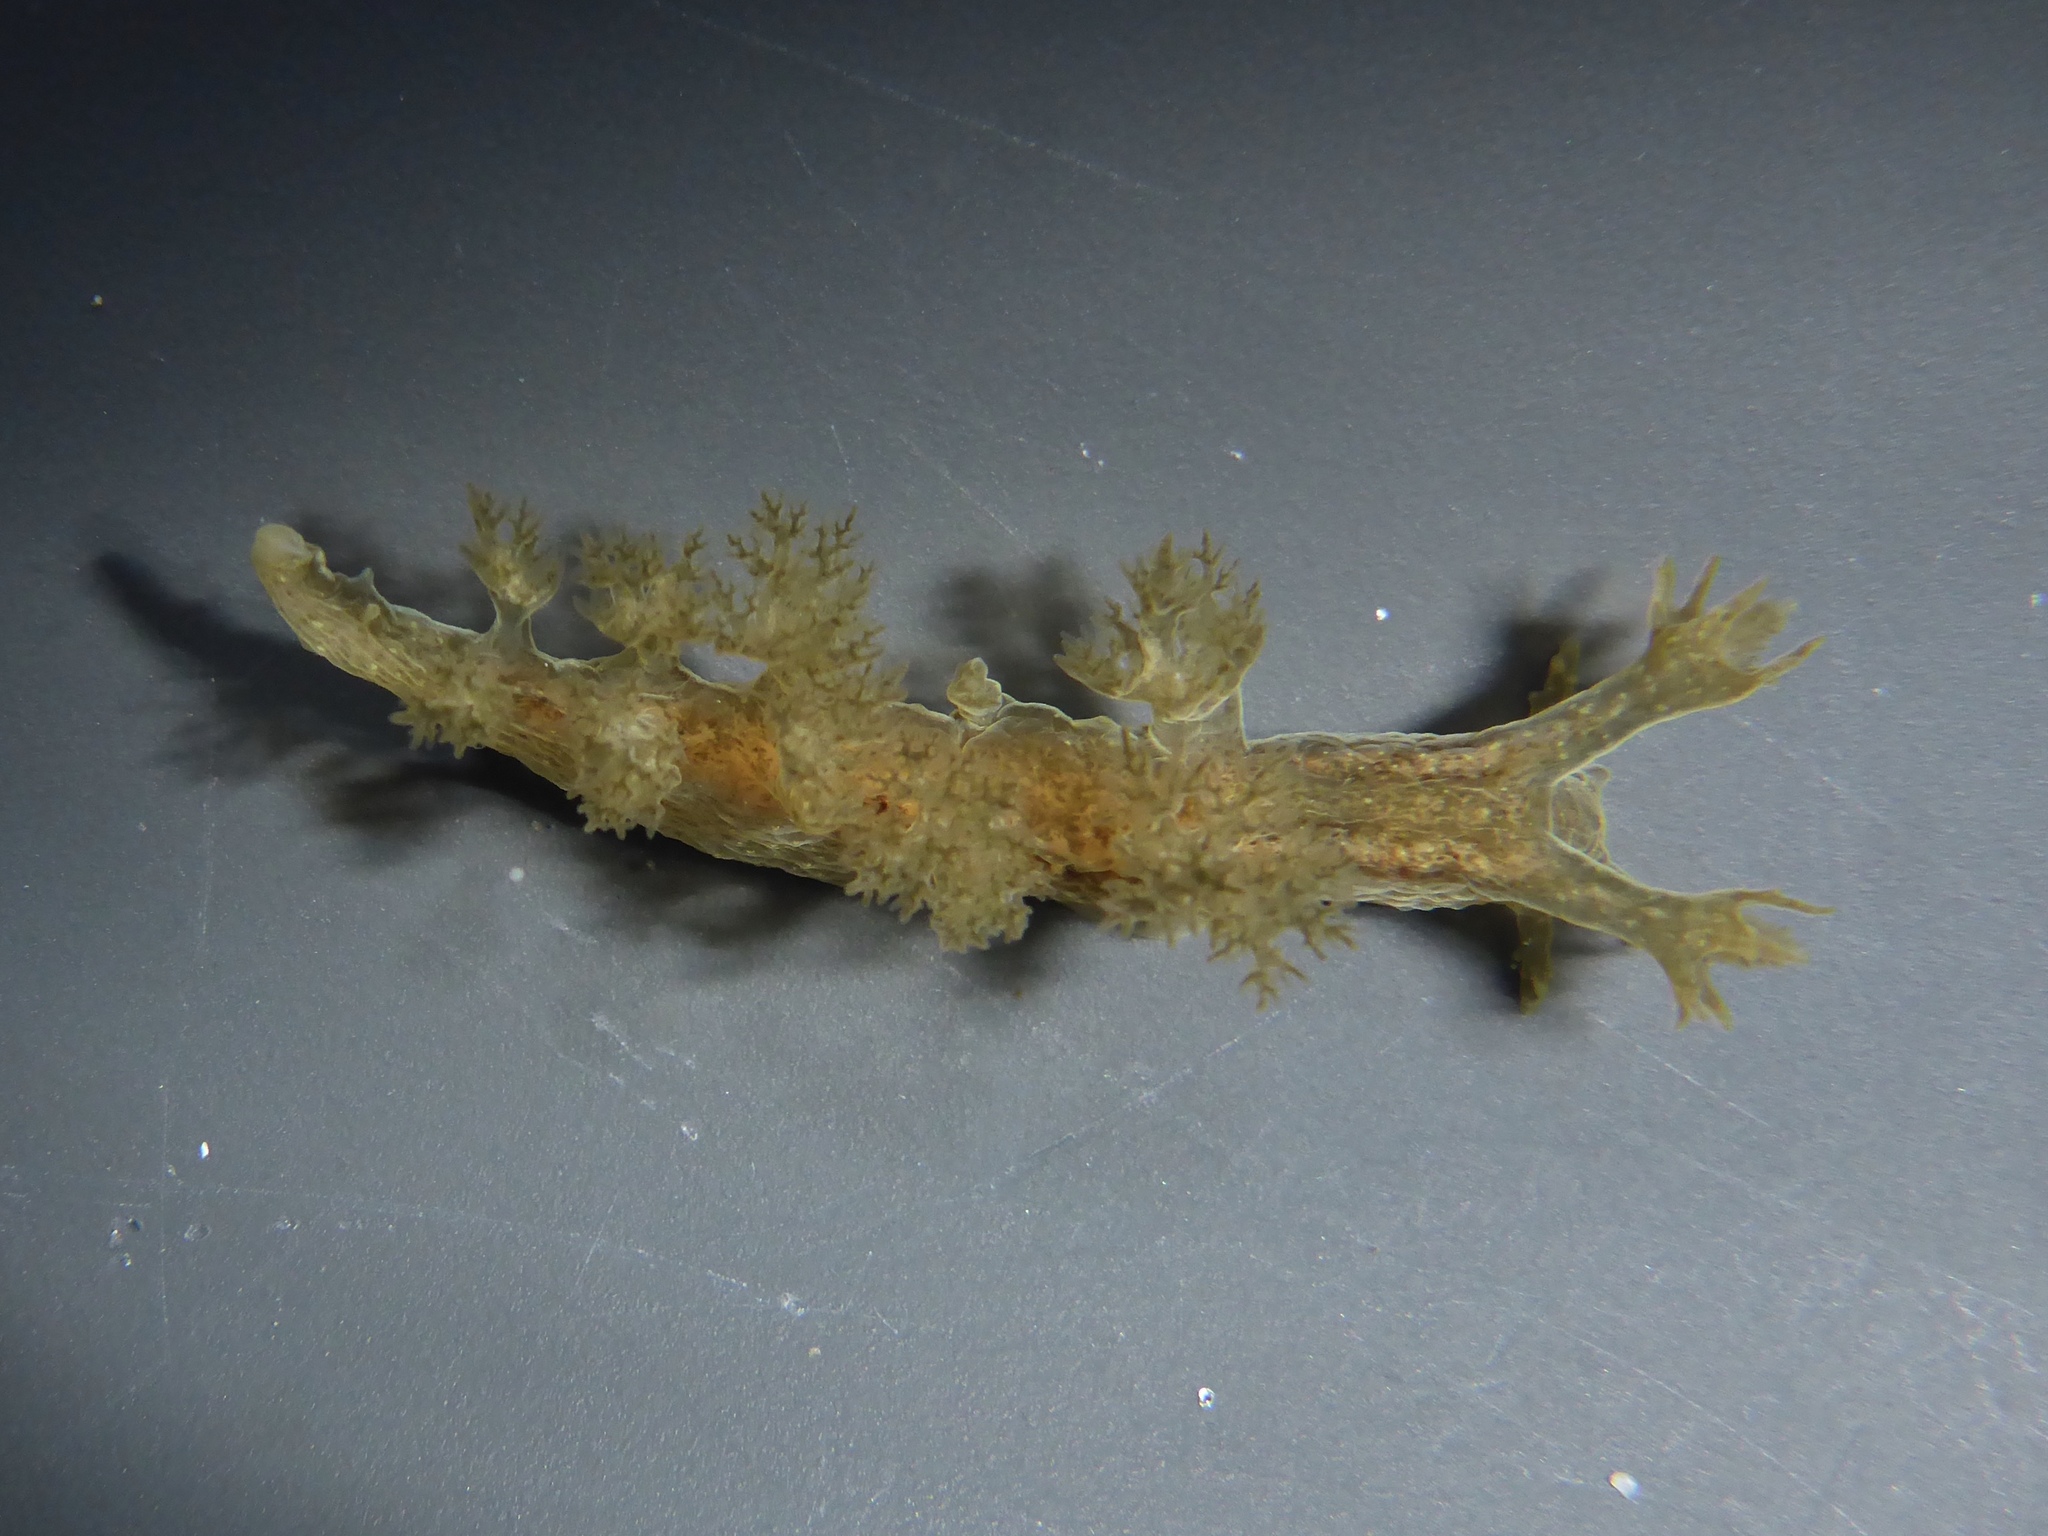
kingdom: Animalia
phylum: Mollusca
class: Gastropoda
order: Nudibranchia
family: Dendronotidae
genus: Dendronotus
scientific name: Dendronotus subramosus
